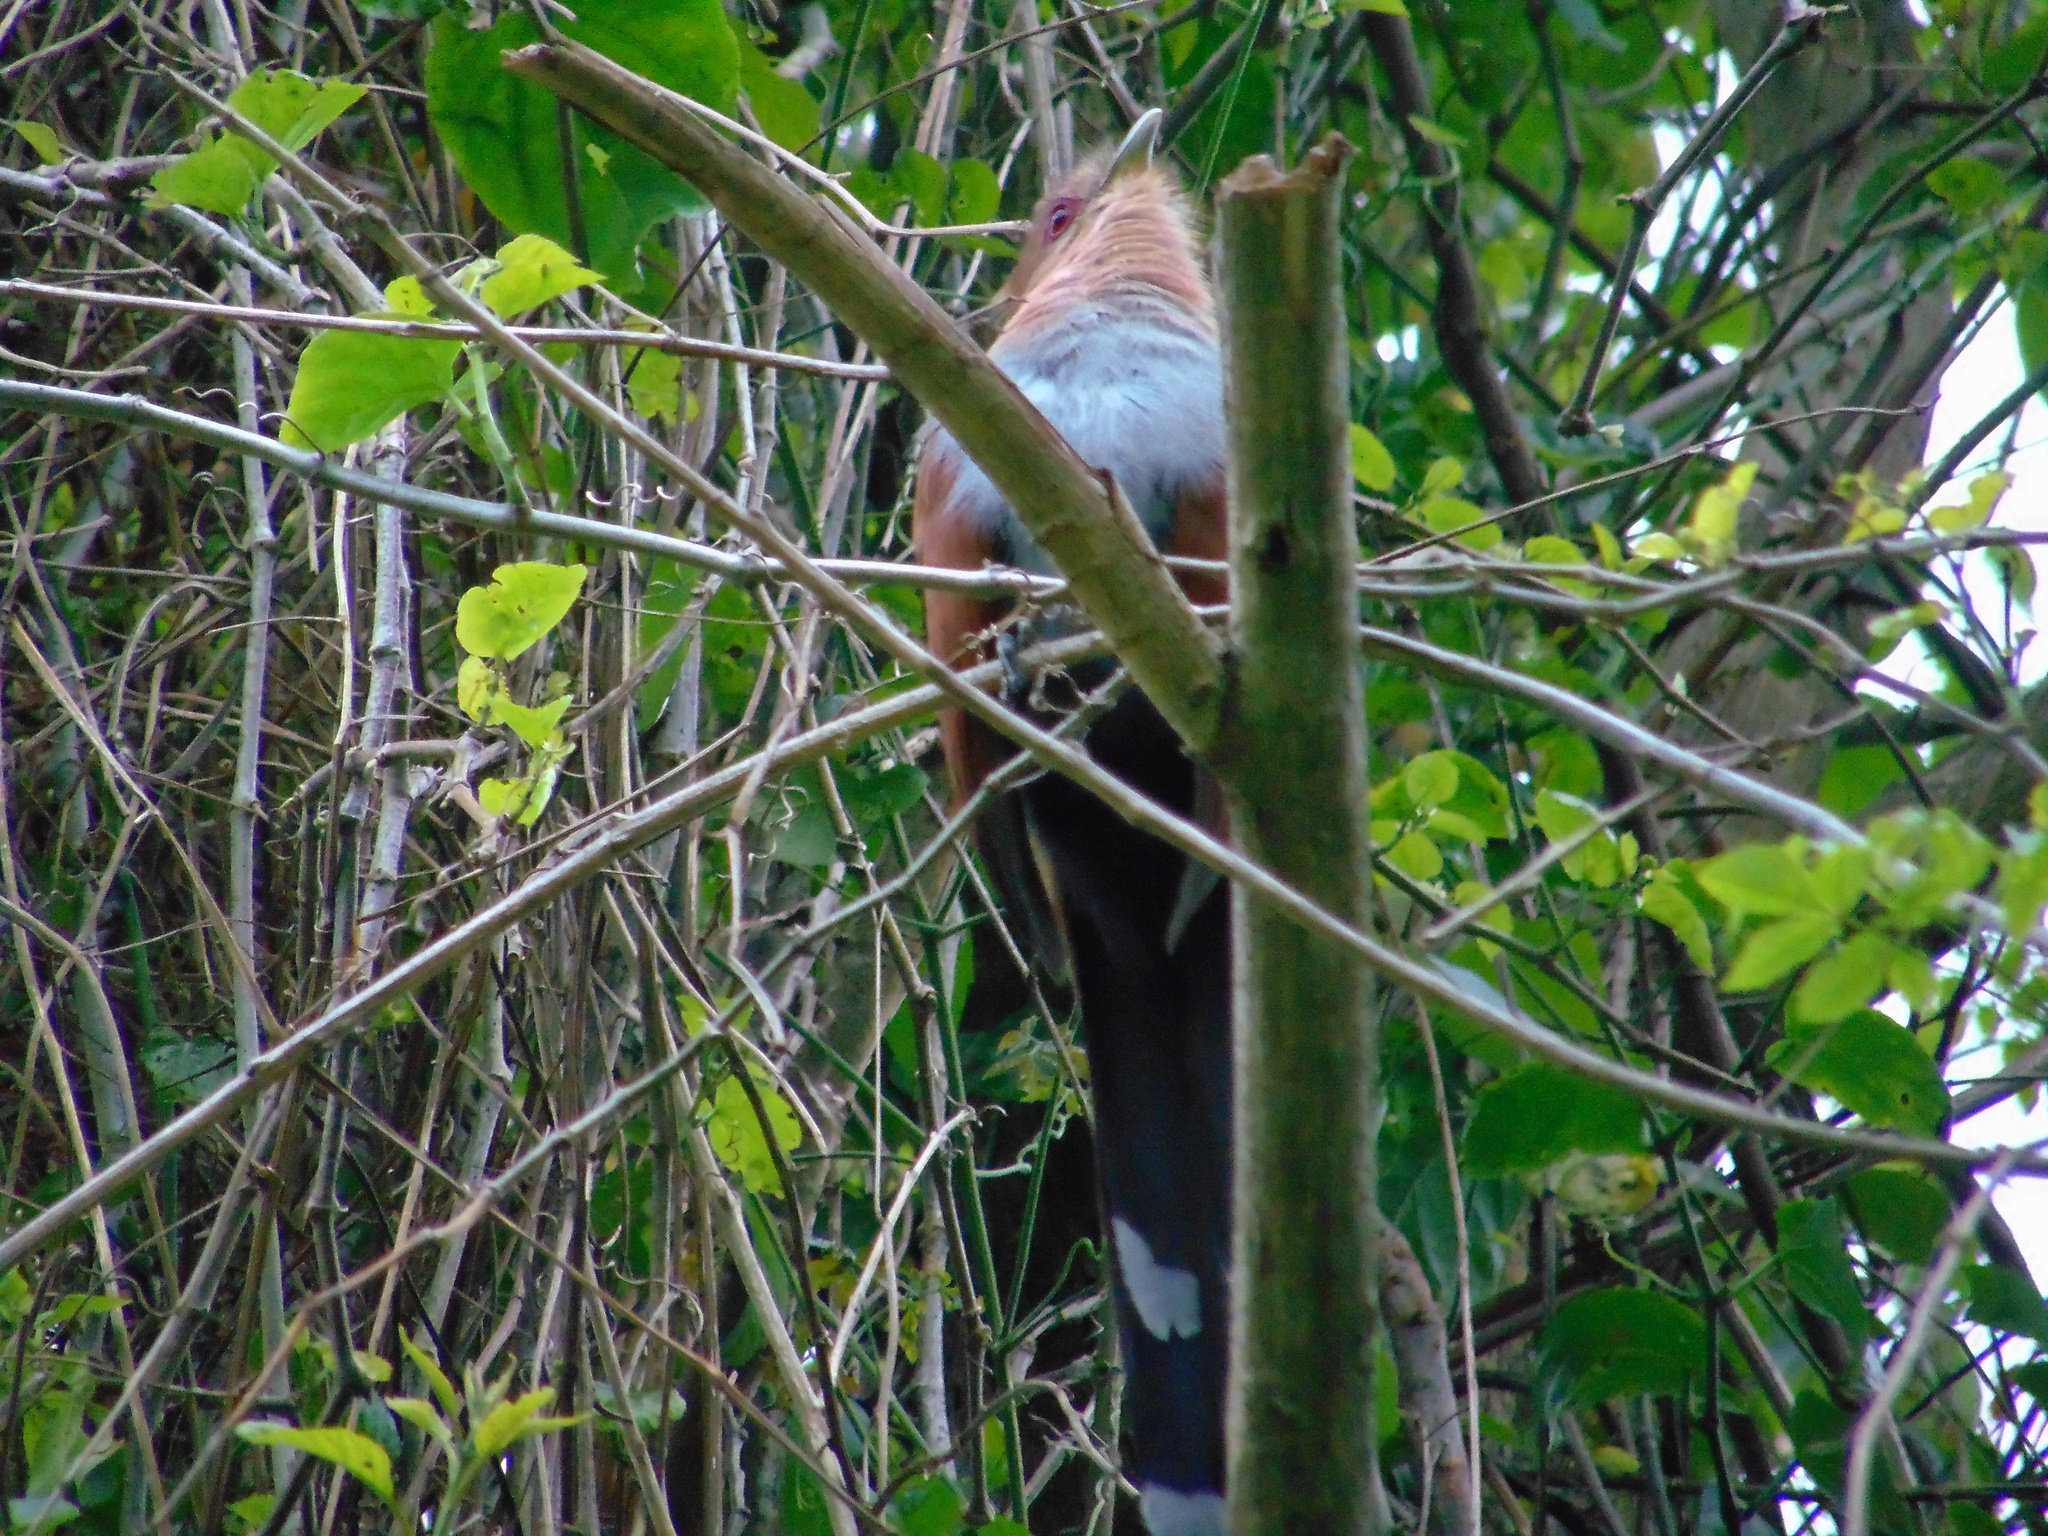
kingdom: Animalia
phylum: Chordata
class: Aves
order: Cuculiformes
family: Cuculidae
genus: Piaya
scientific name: Piaya cayana
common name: Squirrel cuckoo
